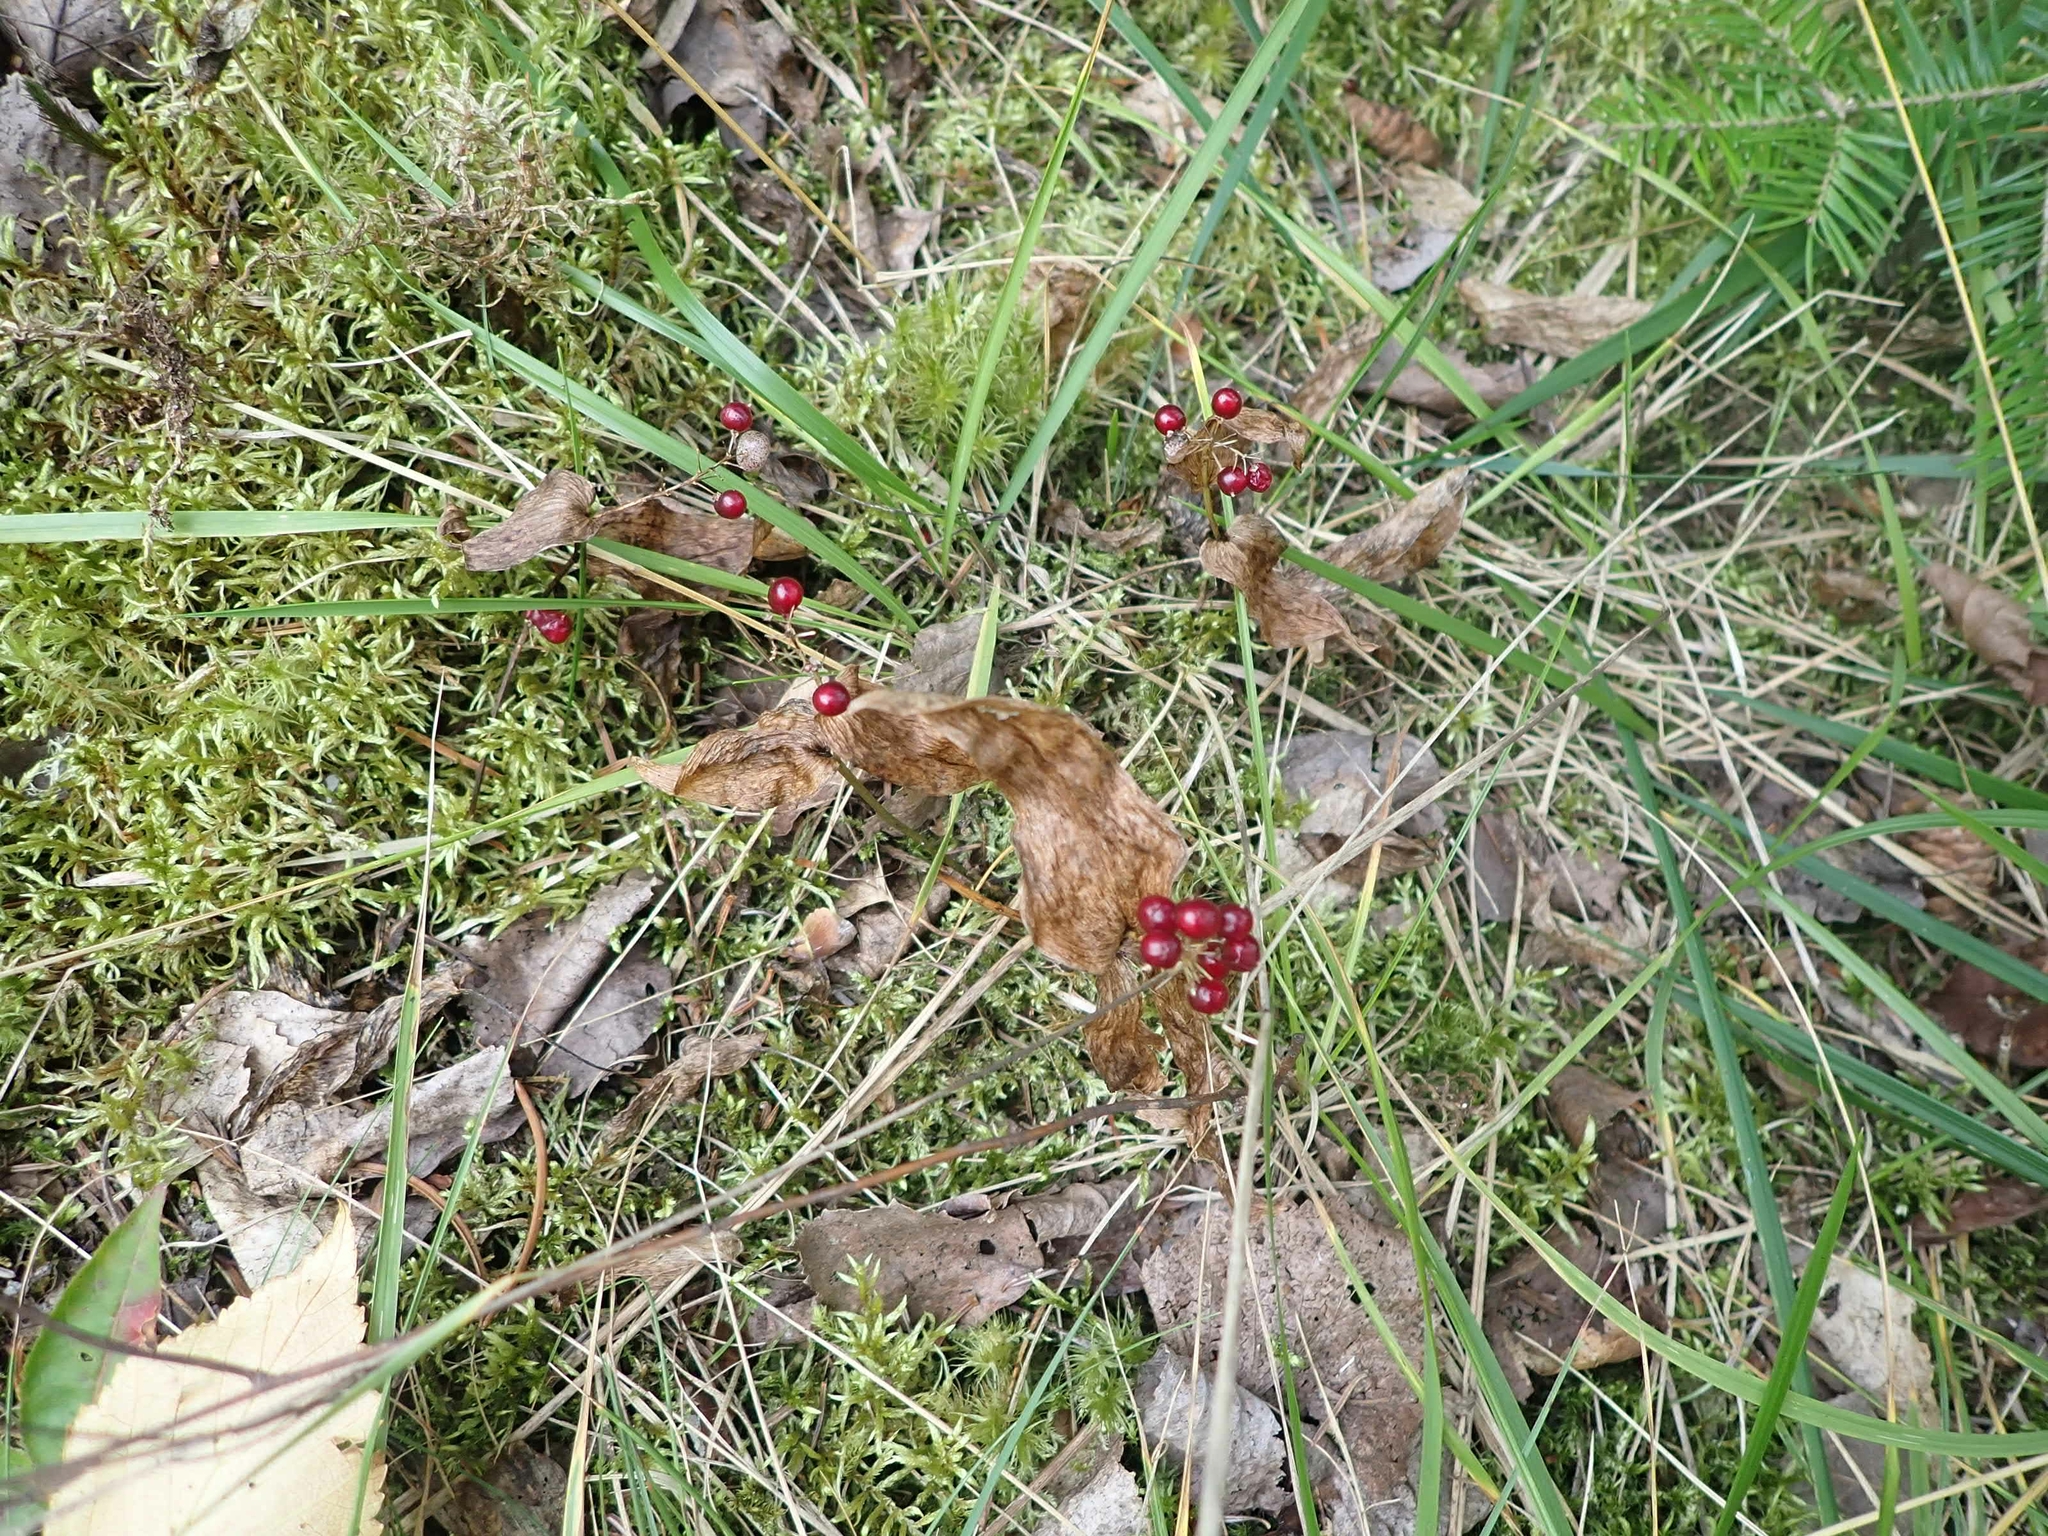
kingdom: Plantae
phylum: Tracheophyta
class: Liliopsida
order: Asparagales
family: Asparagaceae
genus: Maianthemum
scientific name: Maianthemum canadense
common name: False lily-of-the-valley
